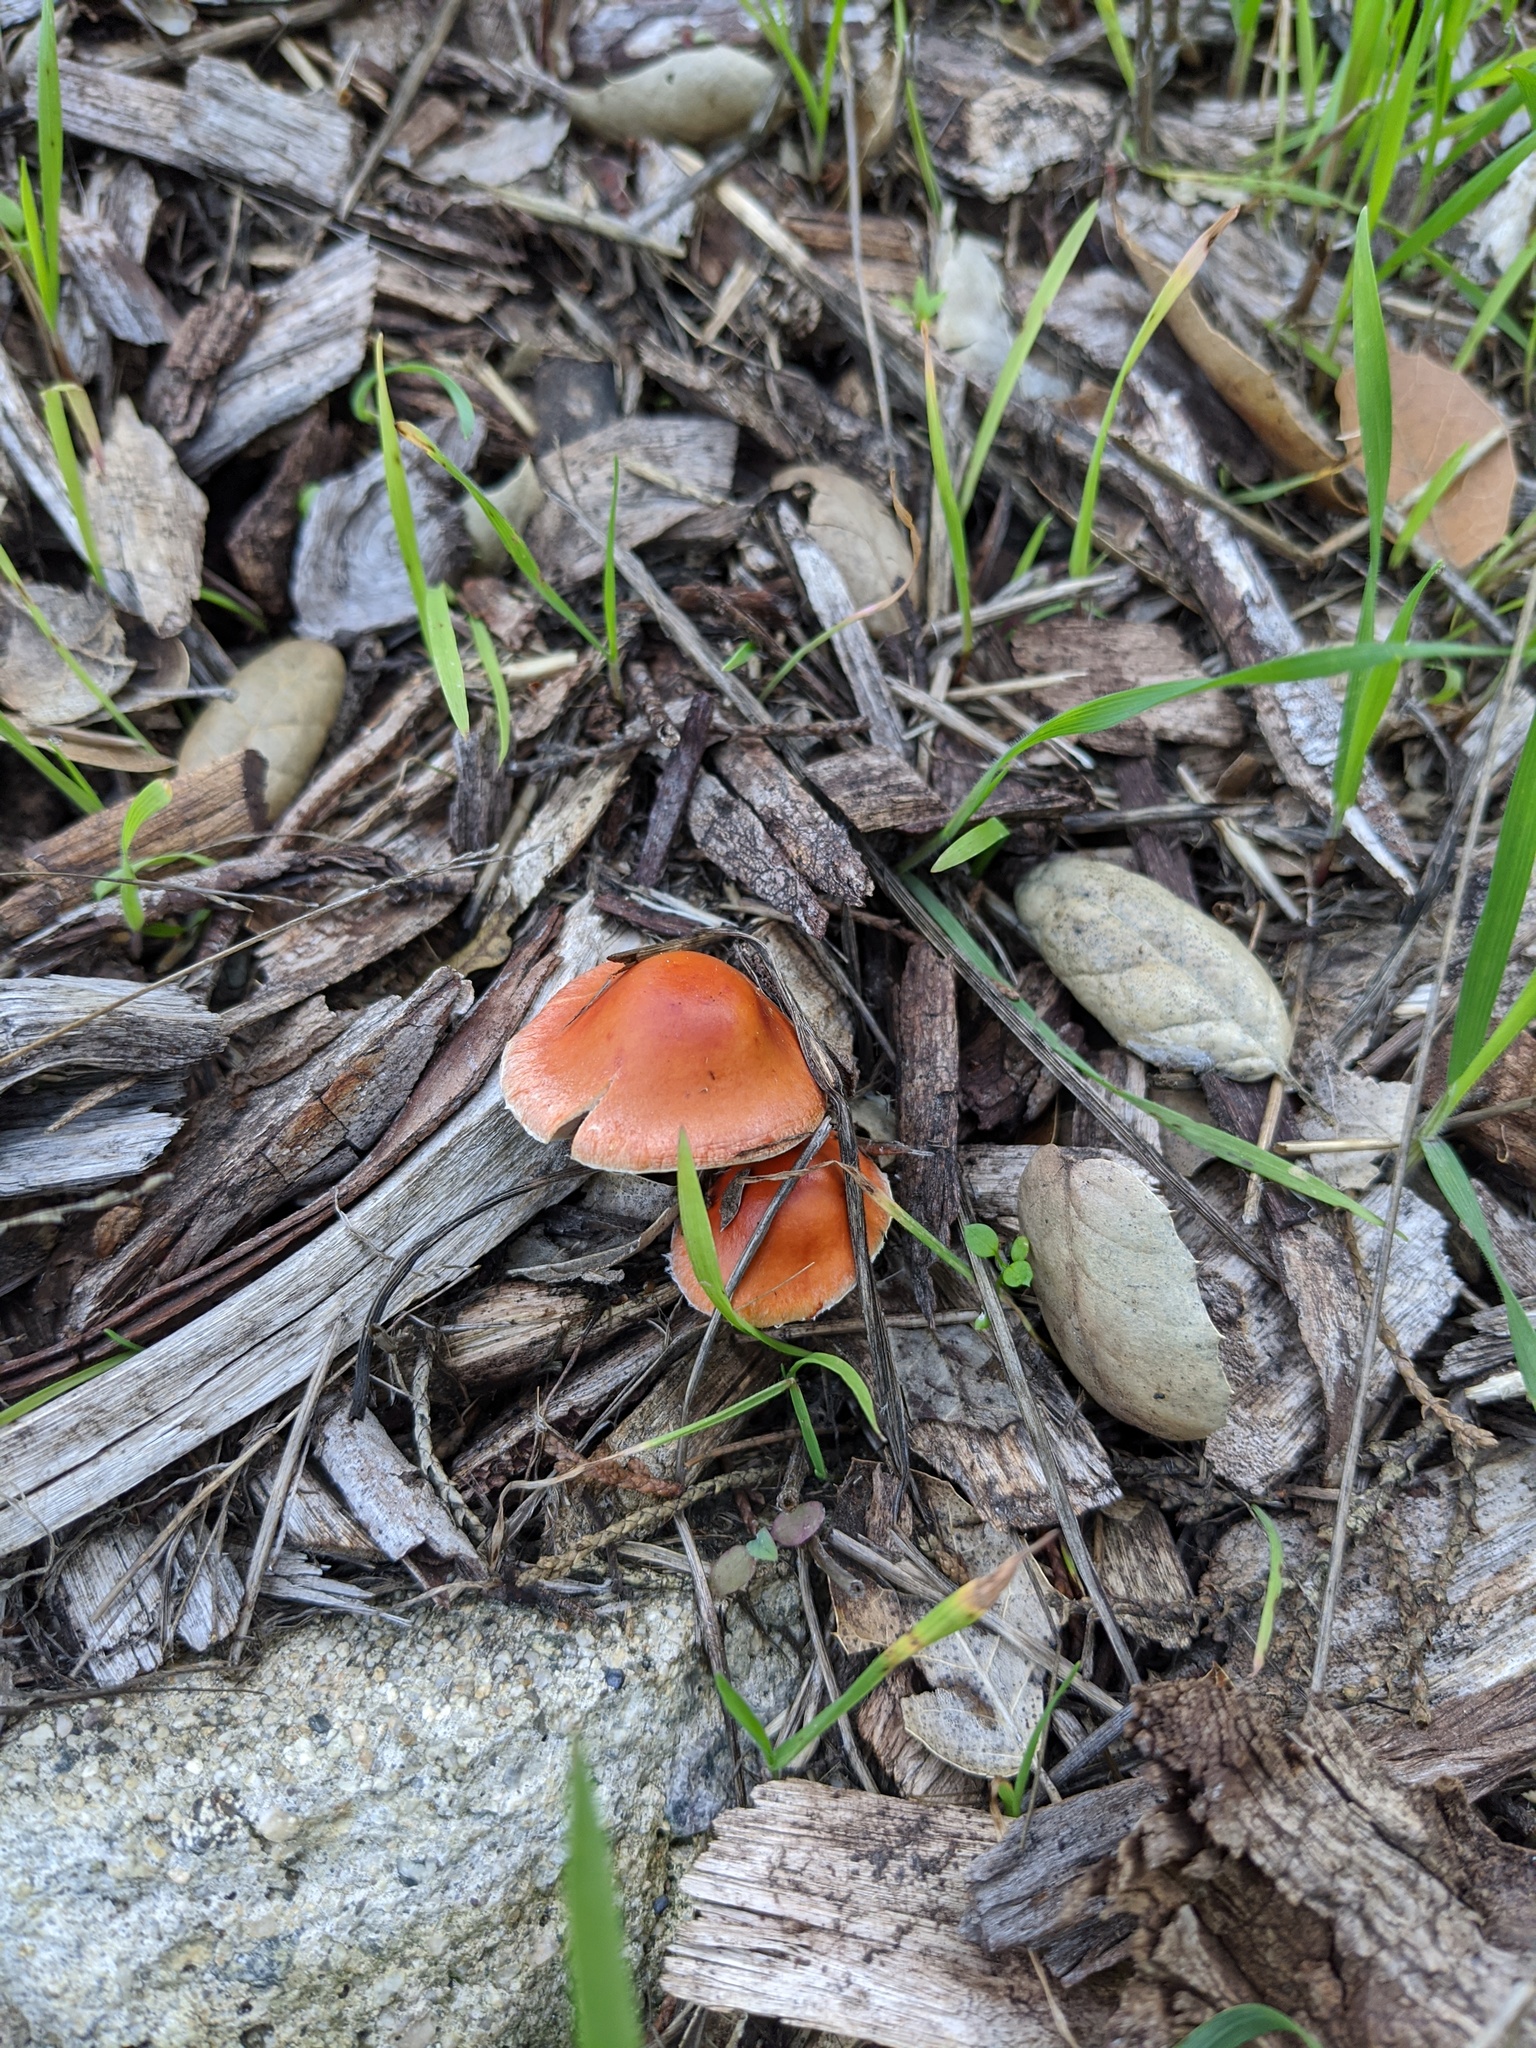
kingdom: Fungi
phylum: Basidiomycota
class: Agaricomycetes
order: Agaricales
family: Strophariaceae
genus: Leratiomyces
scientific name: Leratiomyces ceres
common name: Redlead roundhead
